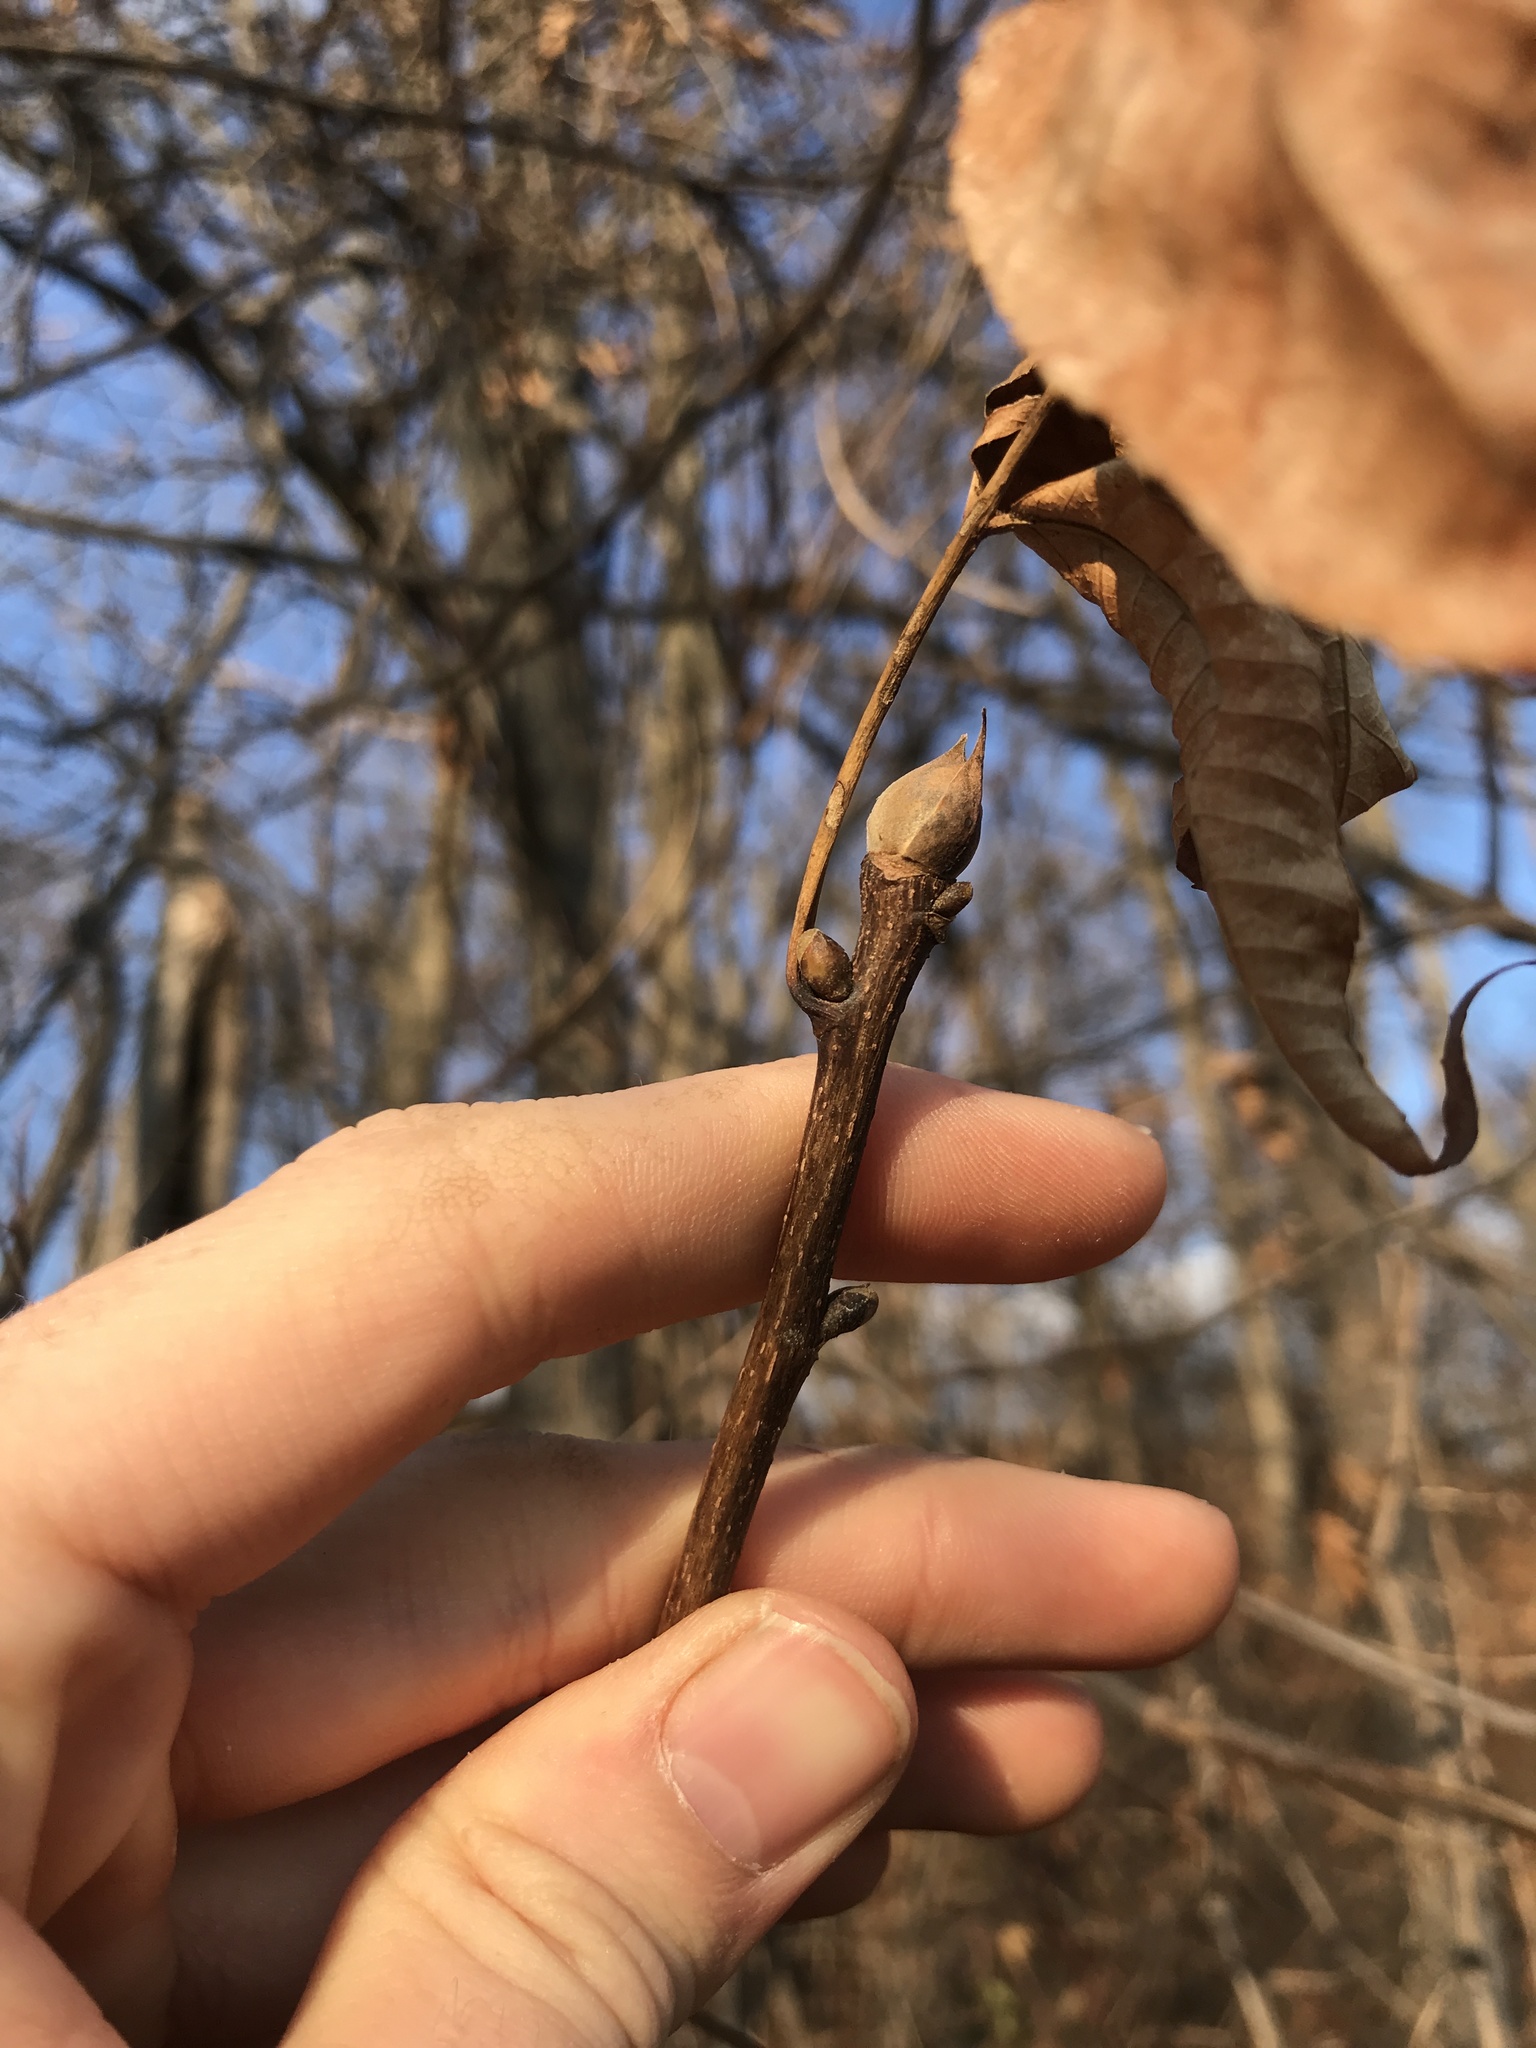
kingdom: Plantae
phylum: Tracheophyta
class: Magnoliopsida
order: Fagales
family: Juglandaceae
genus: Carya
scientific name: Carya glabra
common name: Pignut hickory
